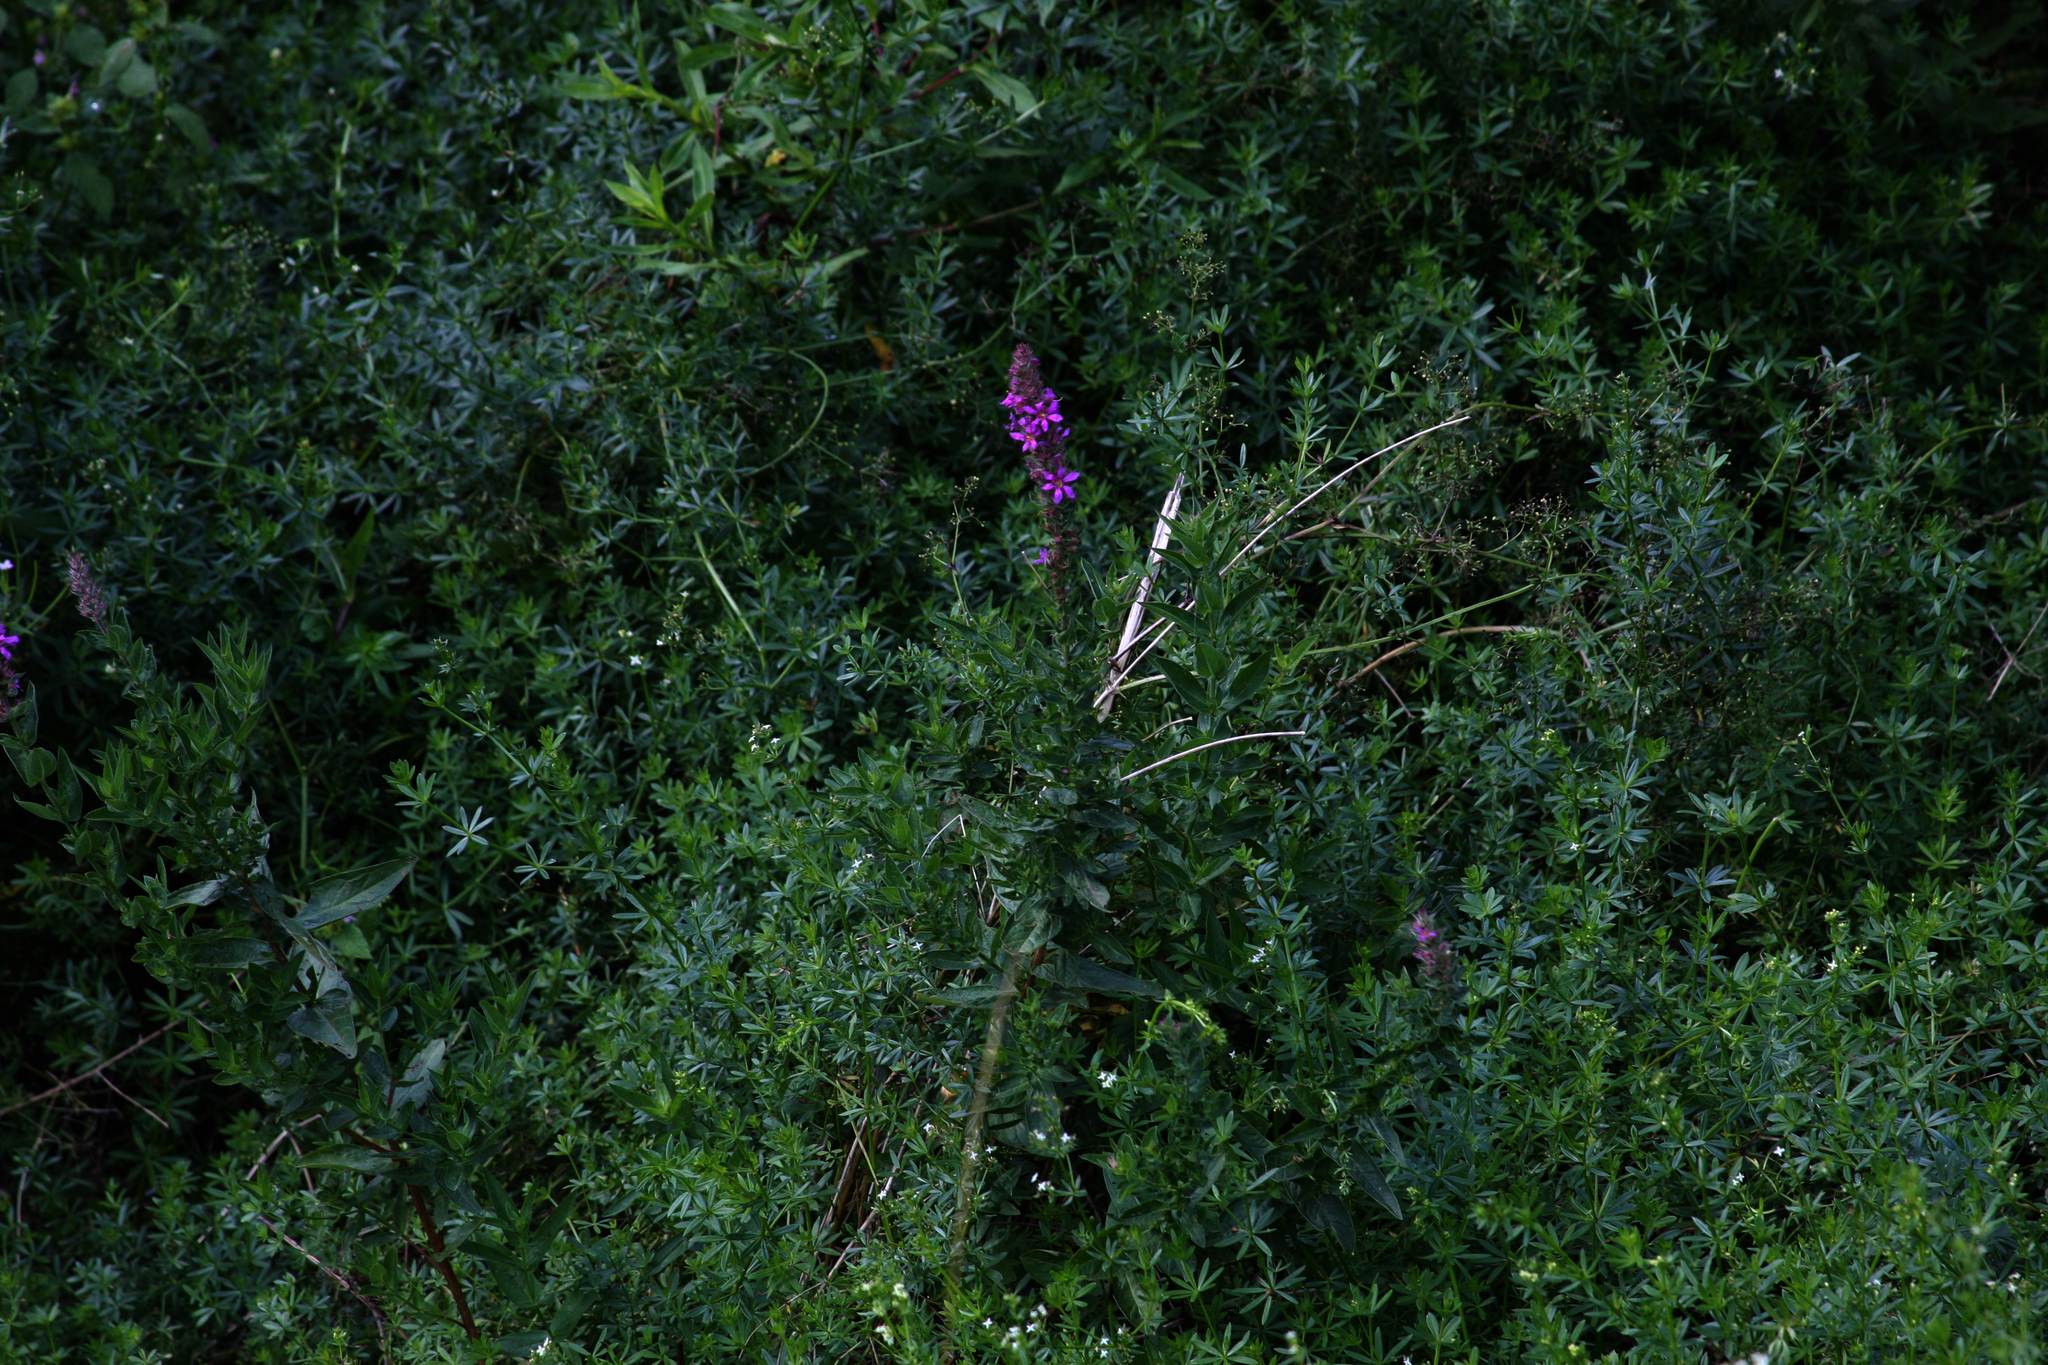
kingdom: Plantae
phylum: Tracheophyta
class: Magnoliopsida
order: Myrtales
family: Lythraceae
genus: Lythrum
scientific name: Lythrum salicaria
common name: Purple loosestrife
